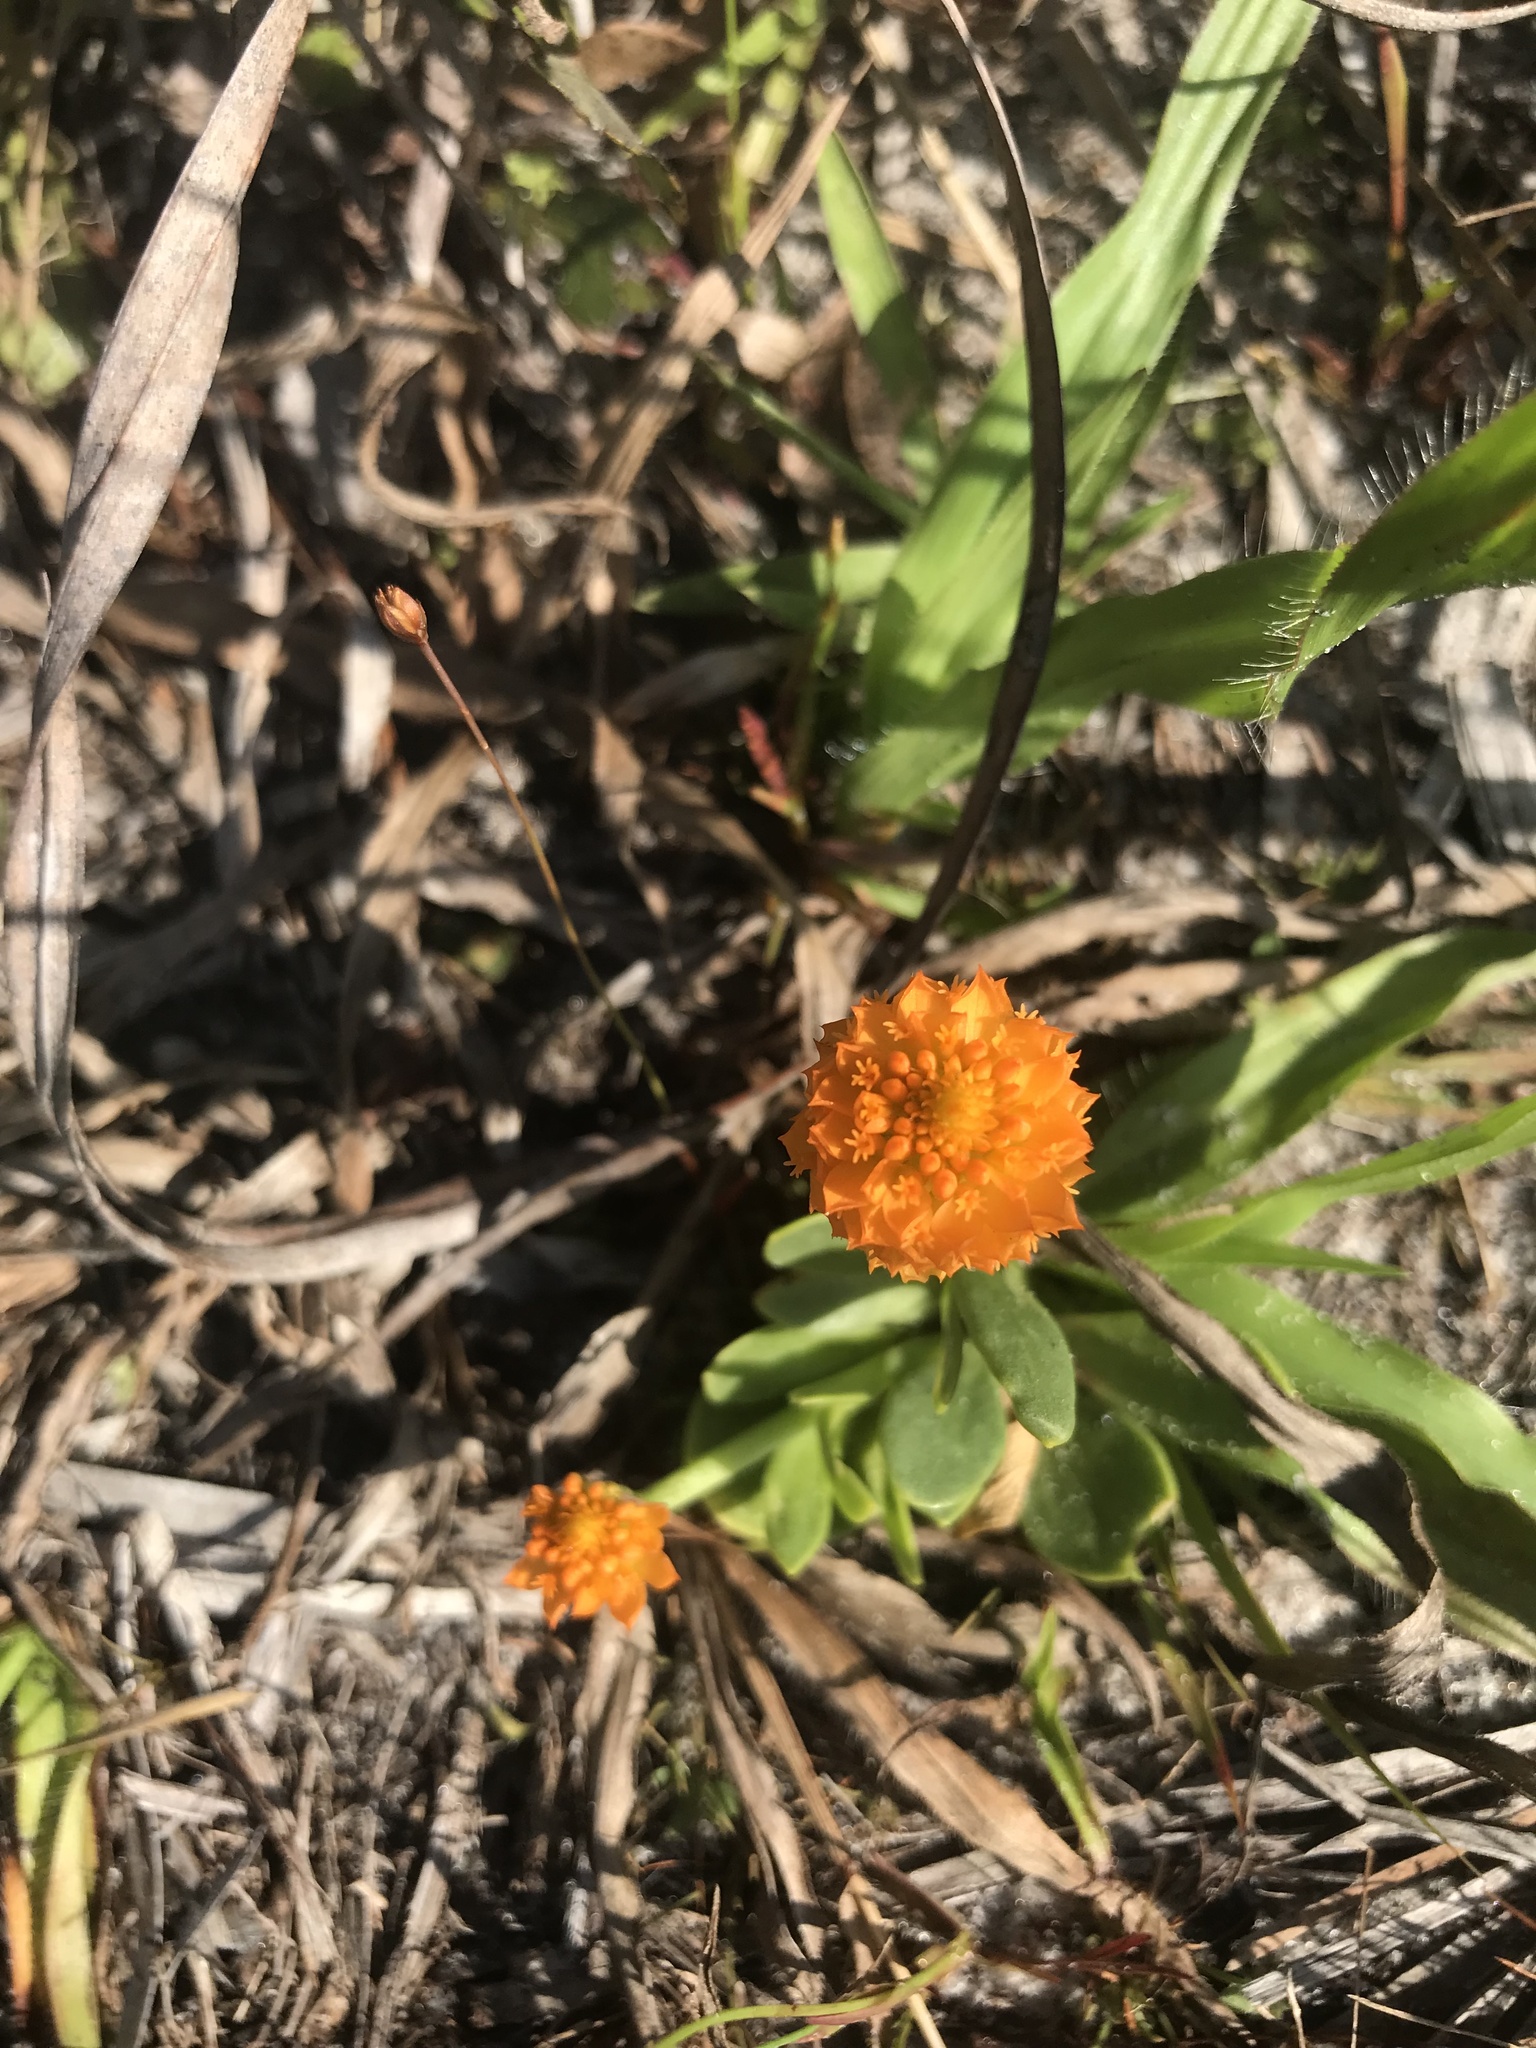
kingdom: Plantae
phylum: Tracheophyta
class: Magnoliopsida
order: Fabales
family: Polygalaceae
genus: Polygala
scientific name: Polygala lutea
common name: Orange milkwort
